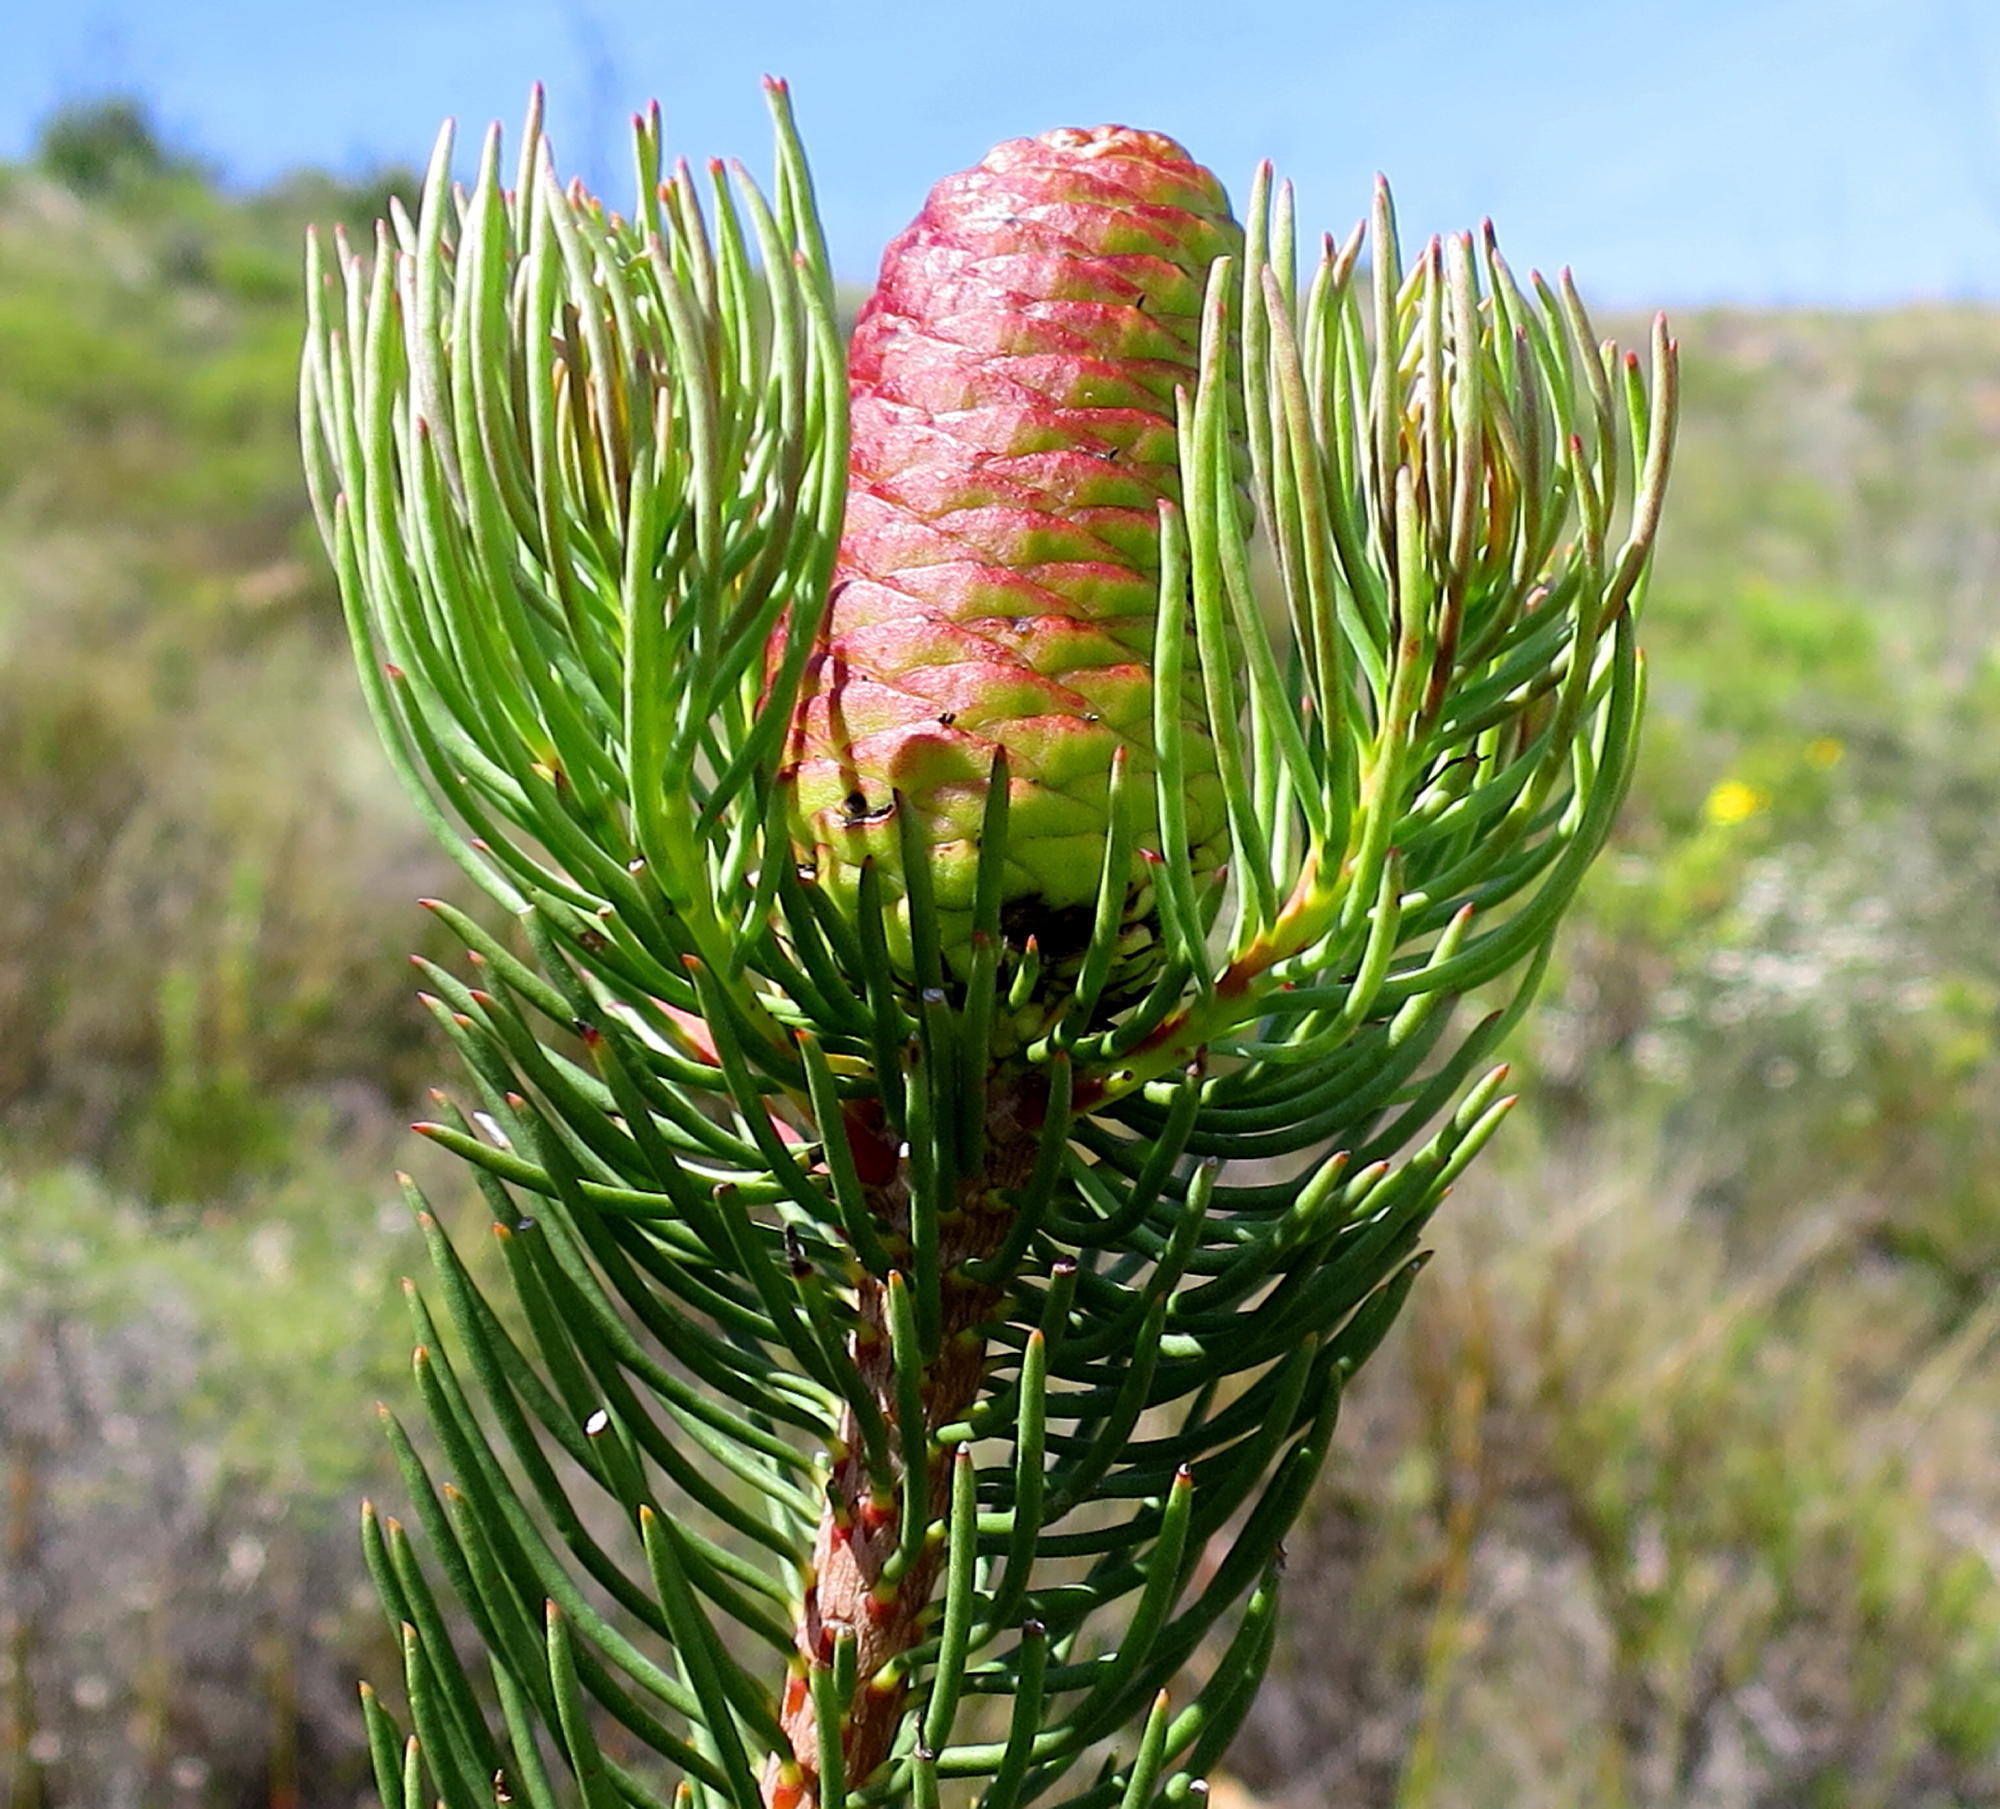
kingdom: Plantae
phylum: Tracheophyta
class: Magnoliopsida
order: Proteales
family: Proteaceae
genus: Leucadendron
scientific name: Leucadendron nobile
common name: Karoo conebush
